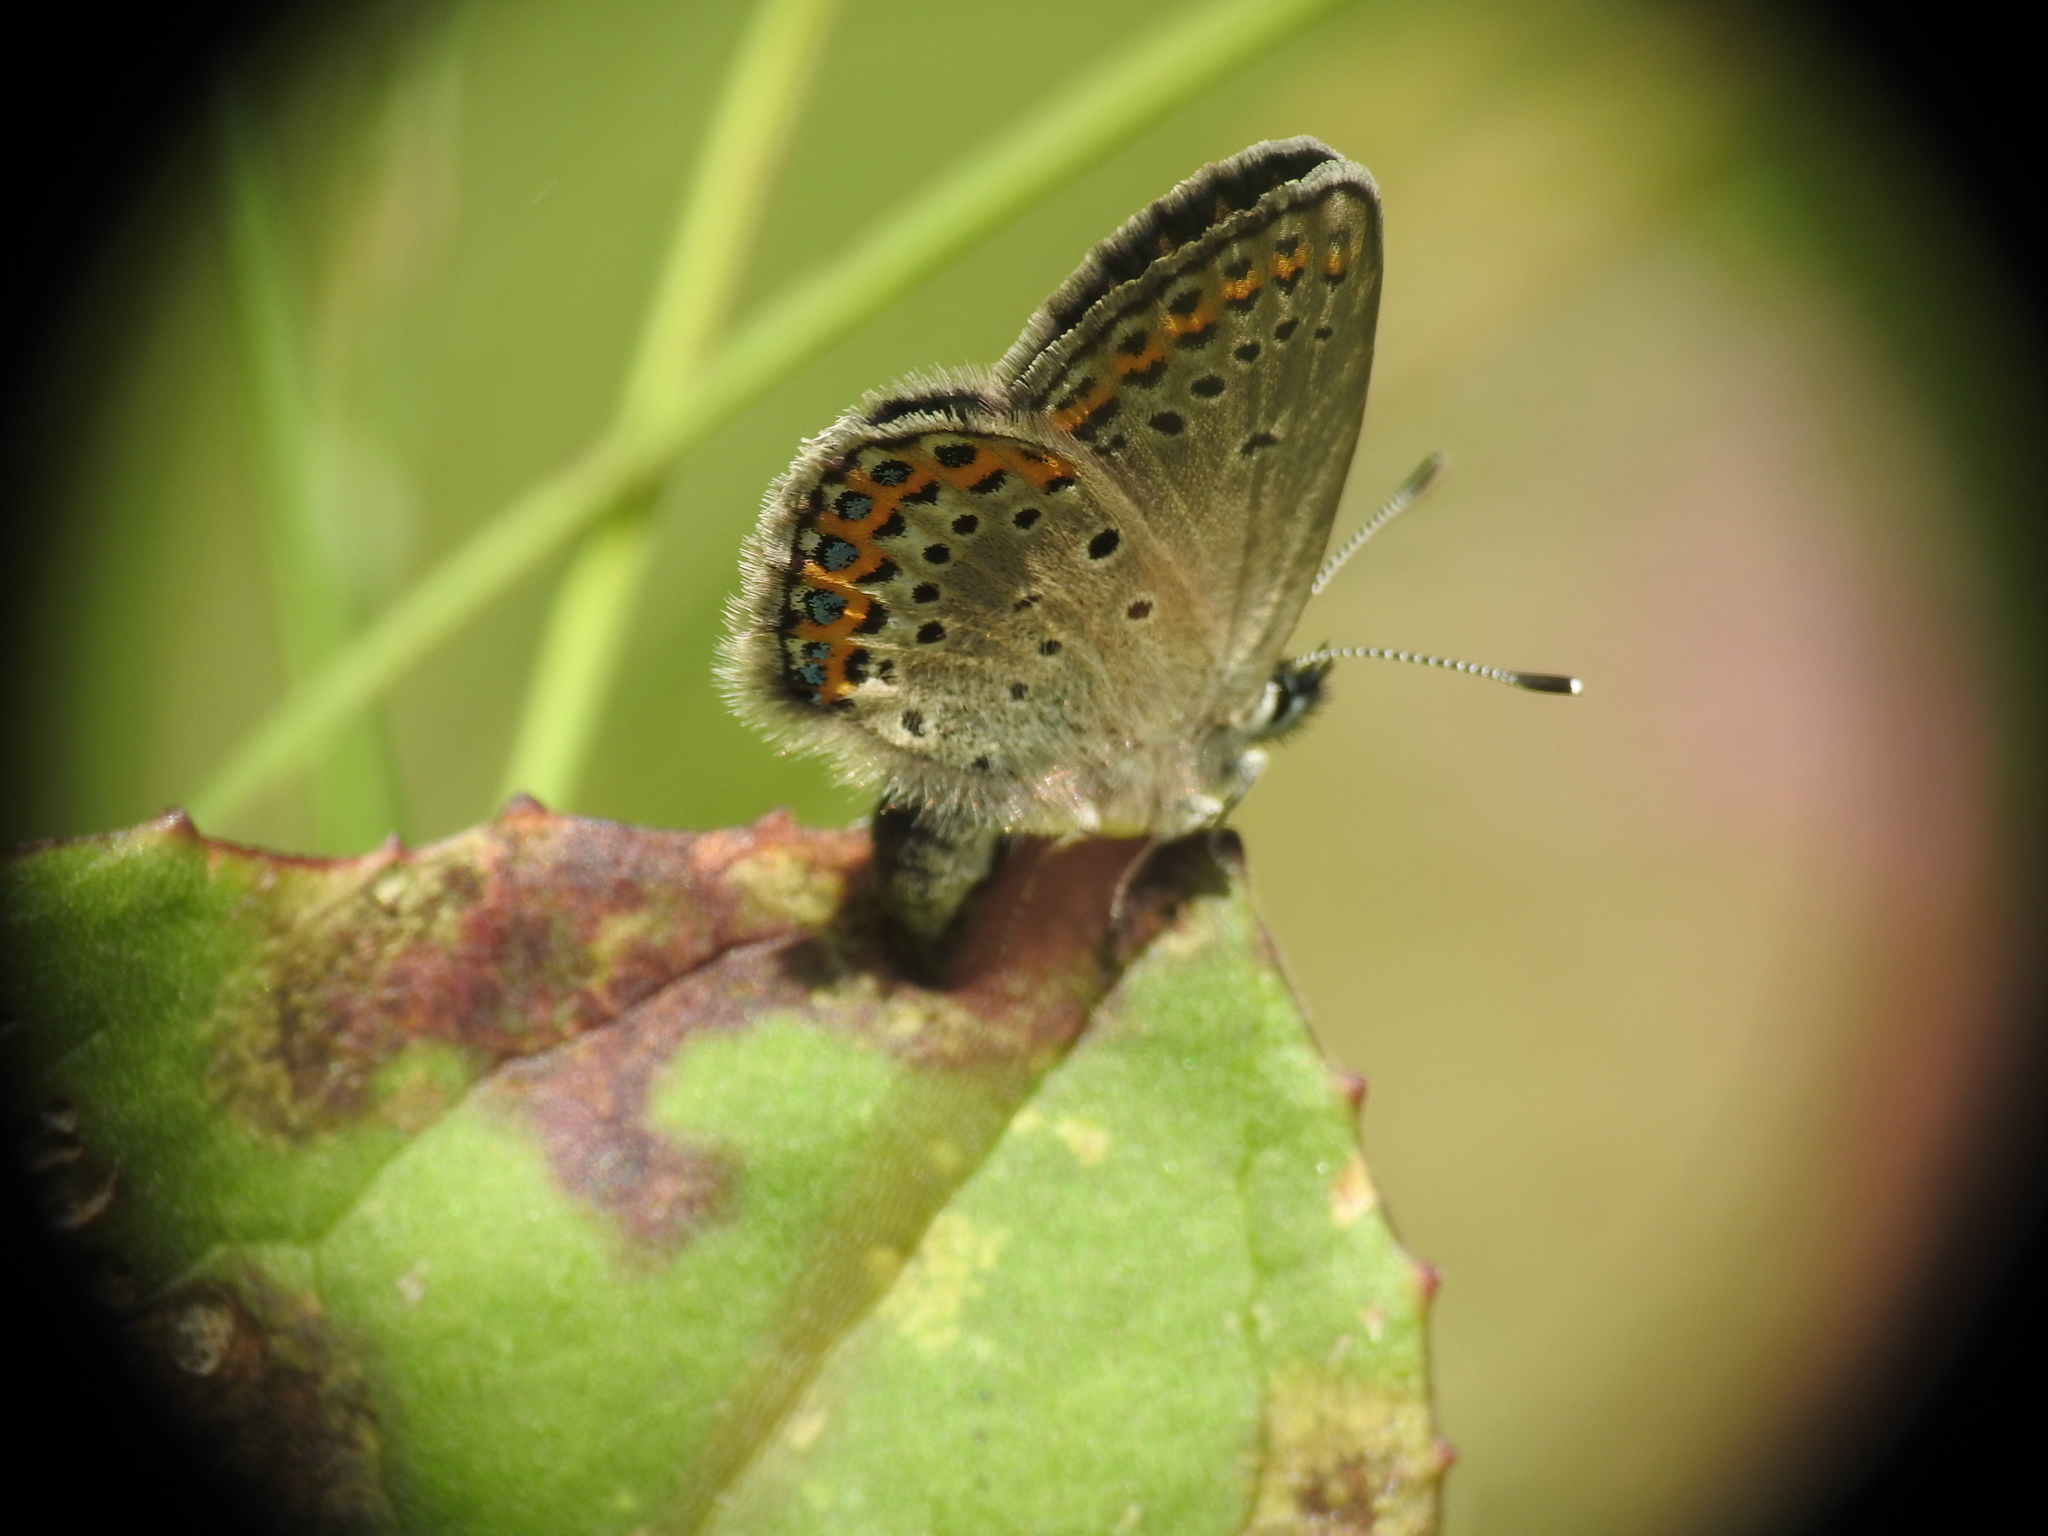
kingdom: Animalia
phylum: Arthropoda
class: Insecta
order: Lepidoptera
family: Lycaenidae
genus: Lycaeides
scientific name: Lycaeides idas
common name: Northern blue
